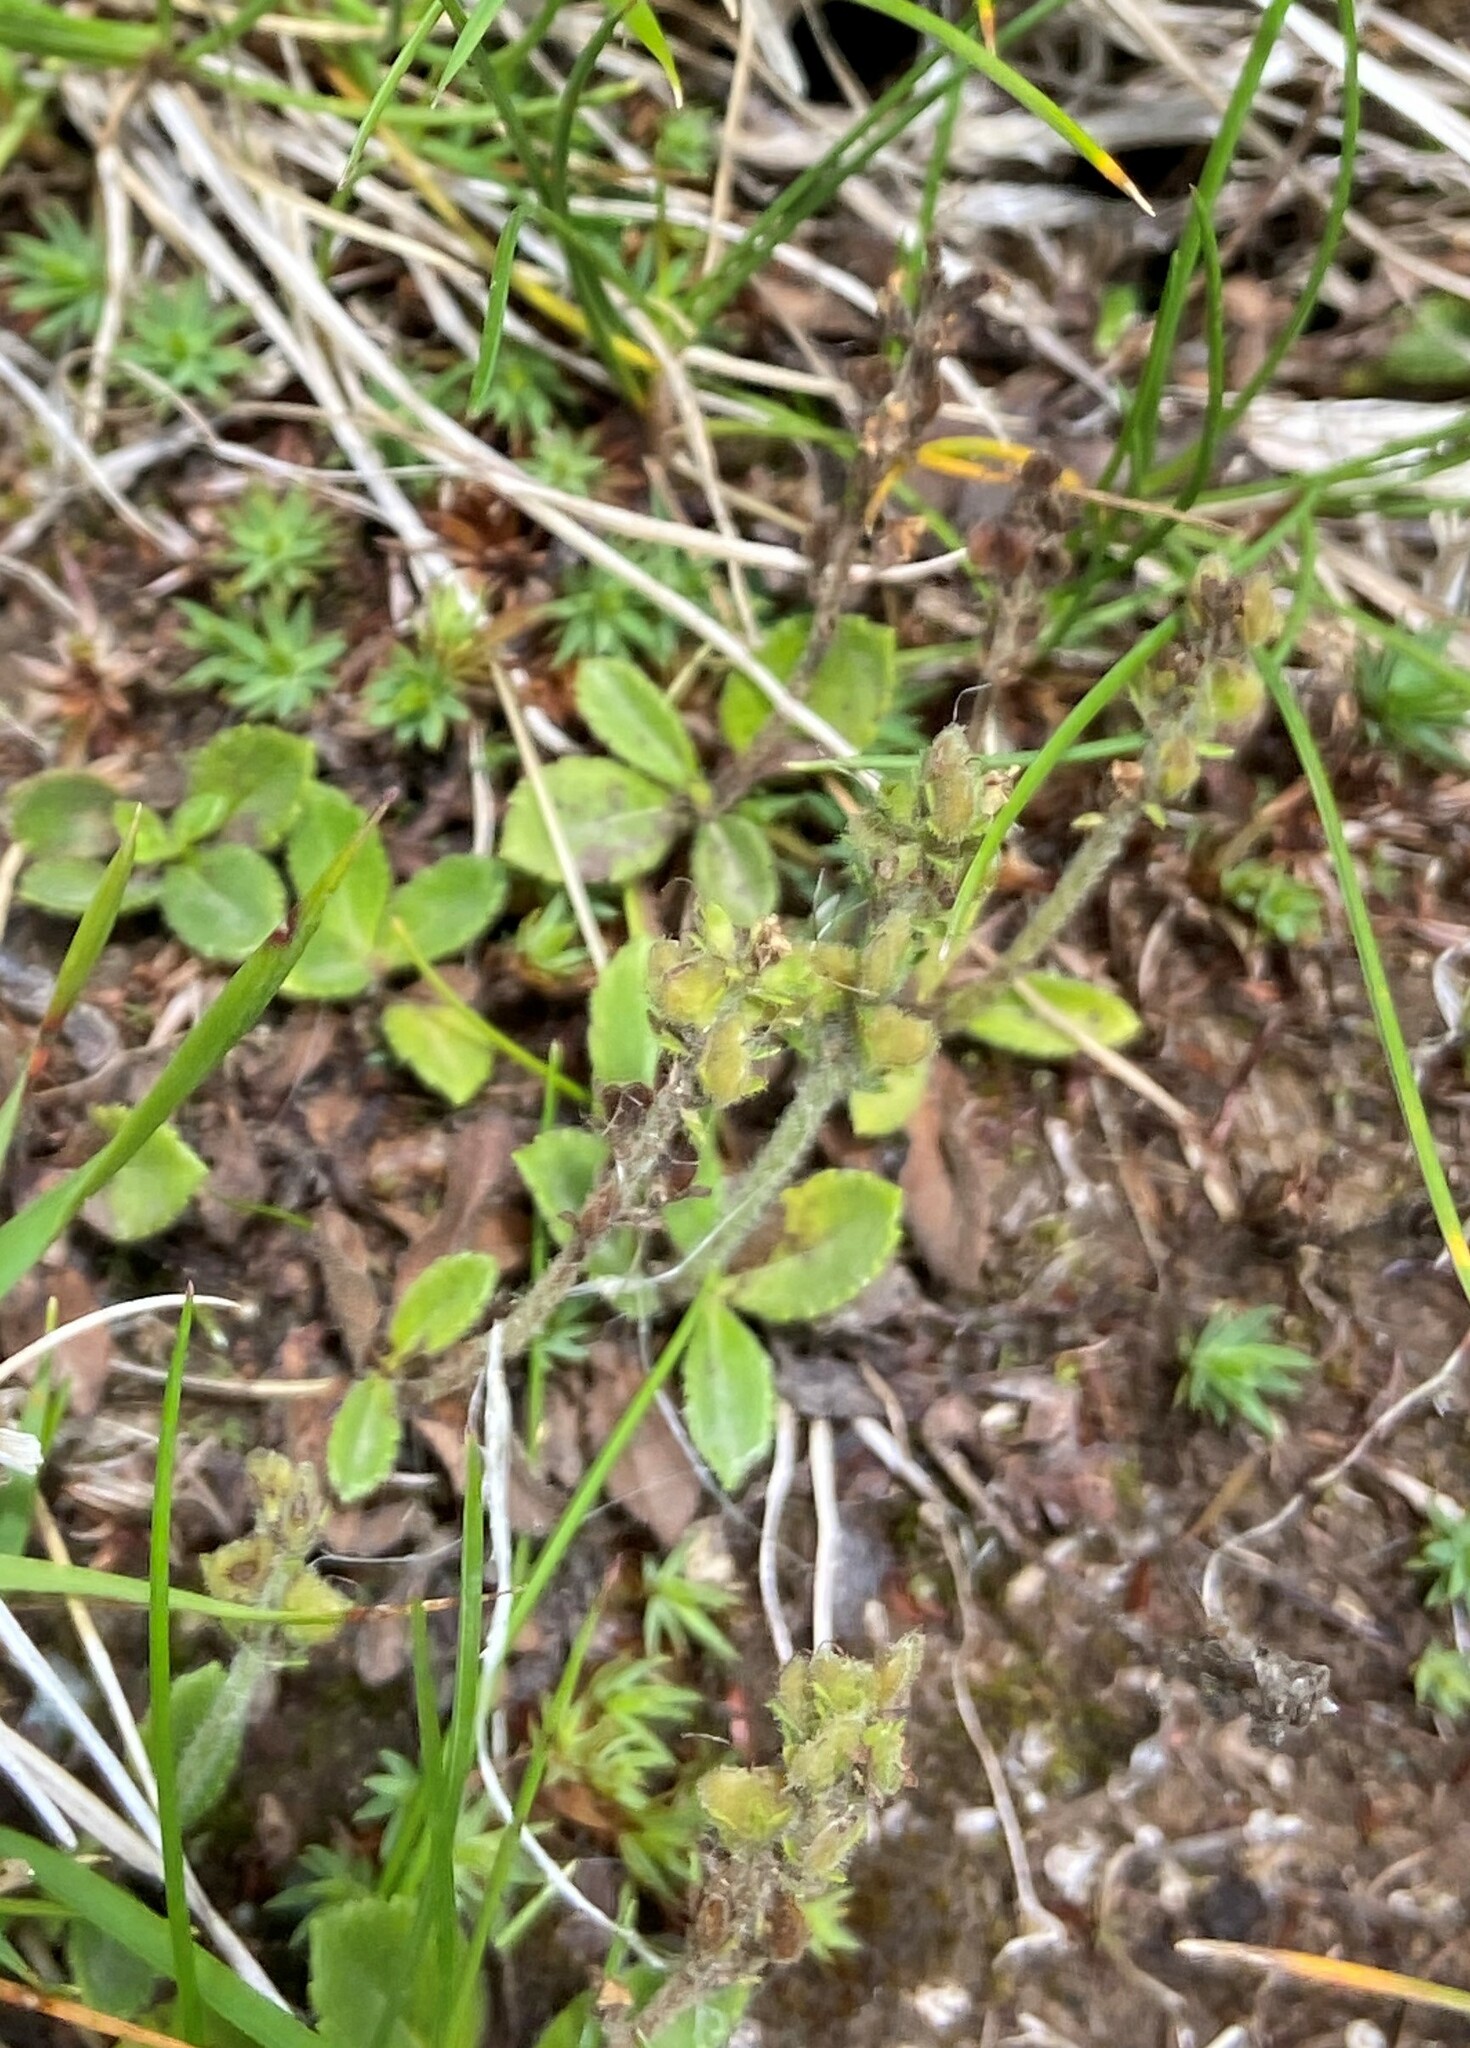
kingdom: Plantae
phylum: Tracheophyta
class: Magnoliopsida
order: Lamiales
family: Plantaginaceae
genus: Veronica
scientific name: Veronica officinalis
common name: Common speedwell
